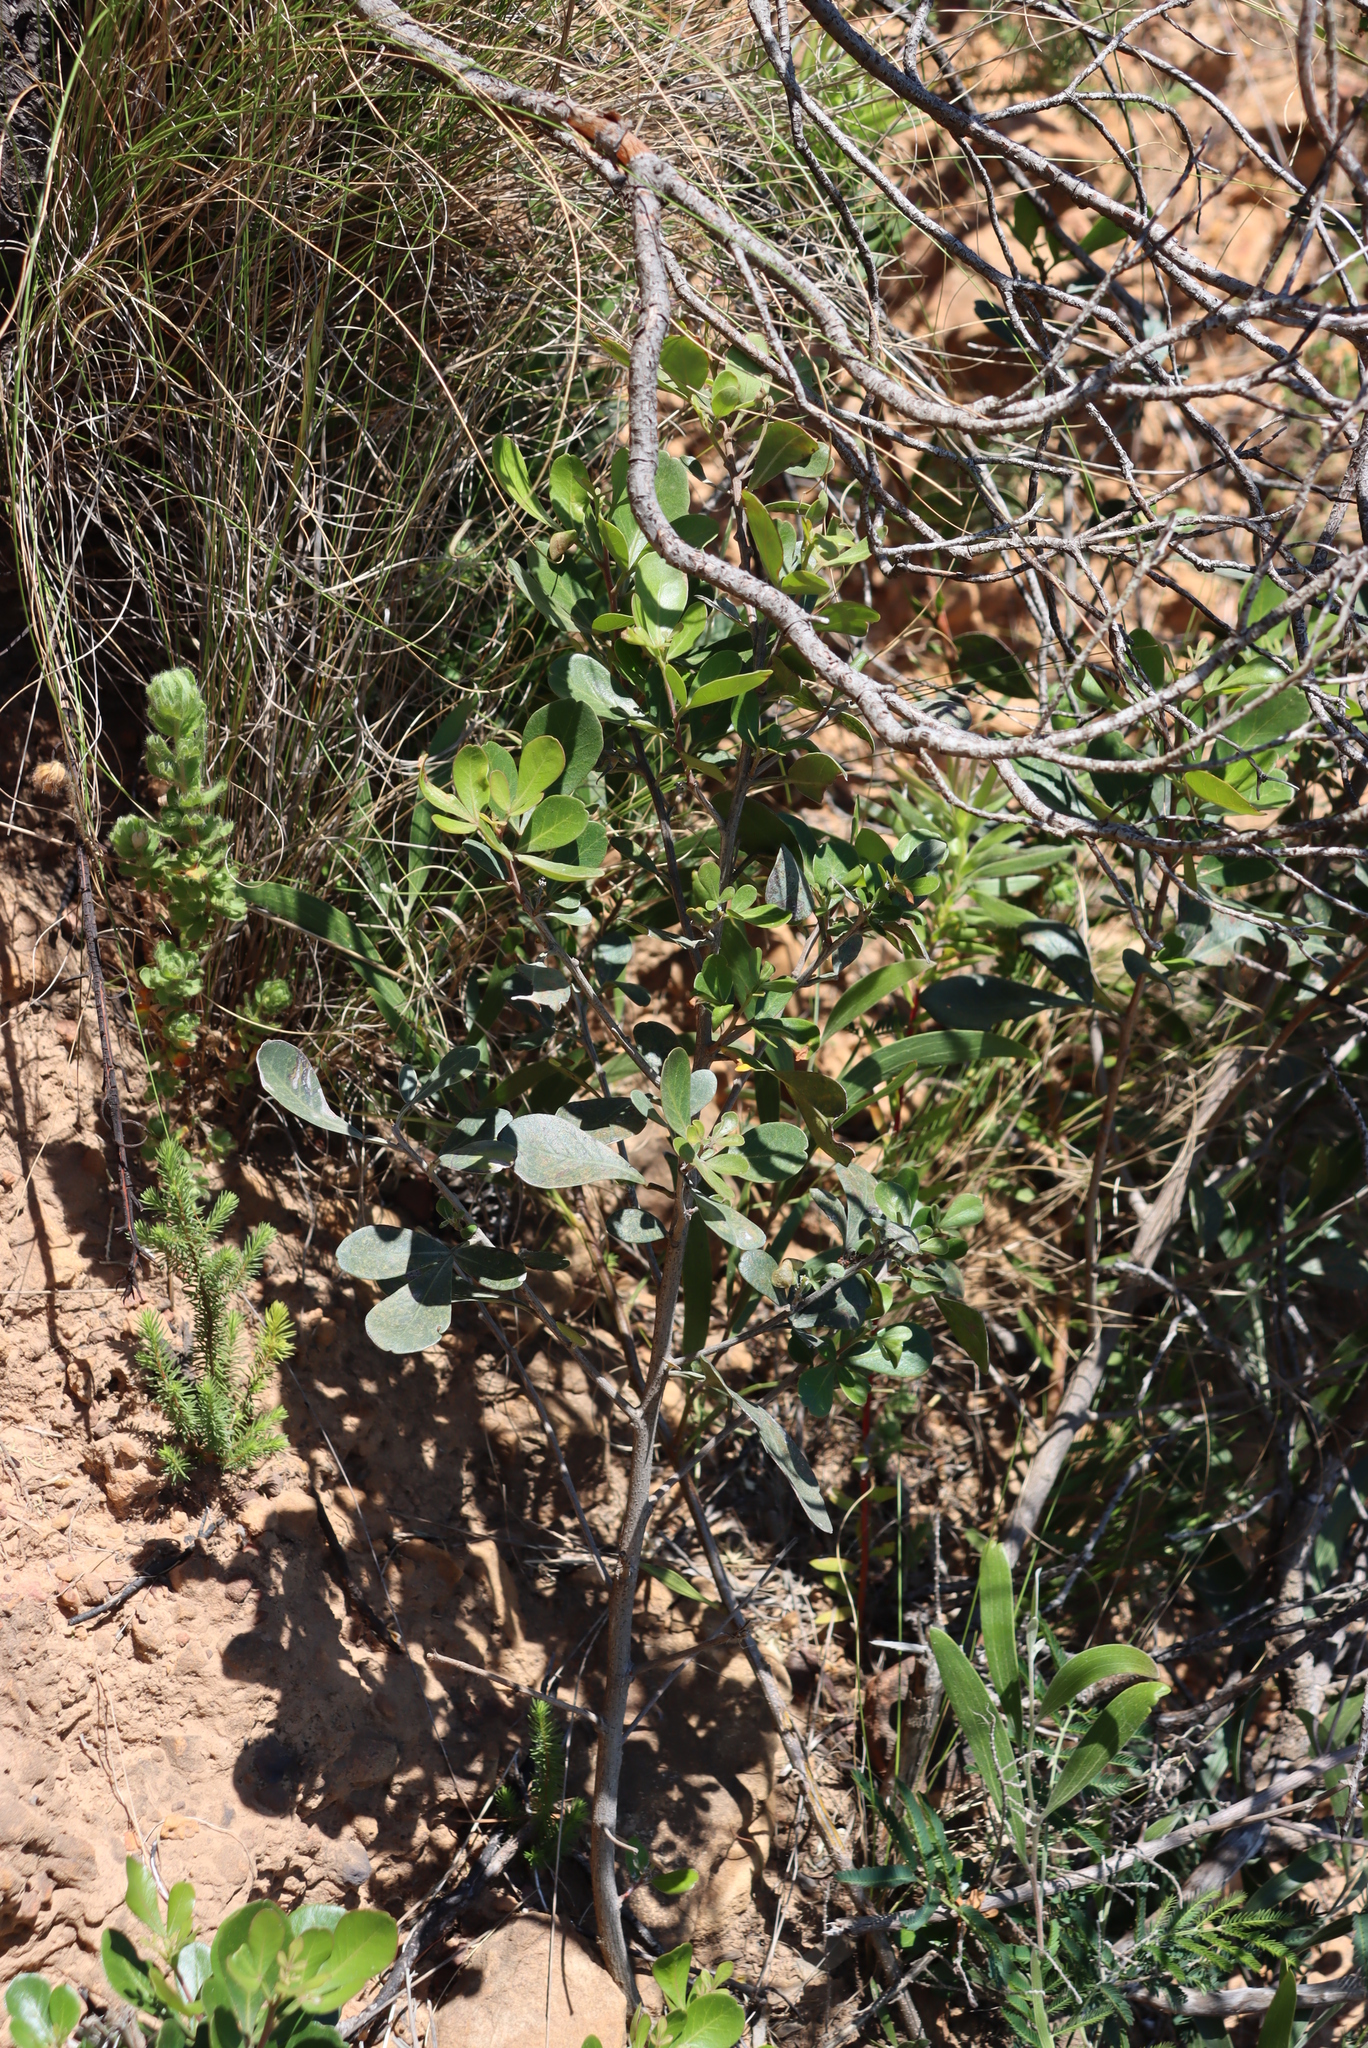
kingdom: Plantae
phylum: Tracheophyta
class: Magnoliopsida
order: Sapindales
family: Anacardiaceae
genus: Searsia
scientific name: Searsia lucida
